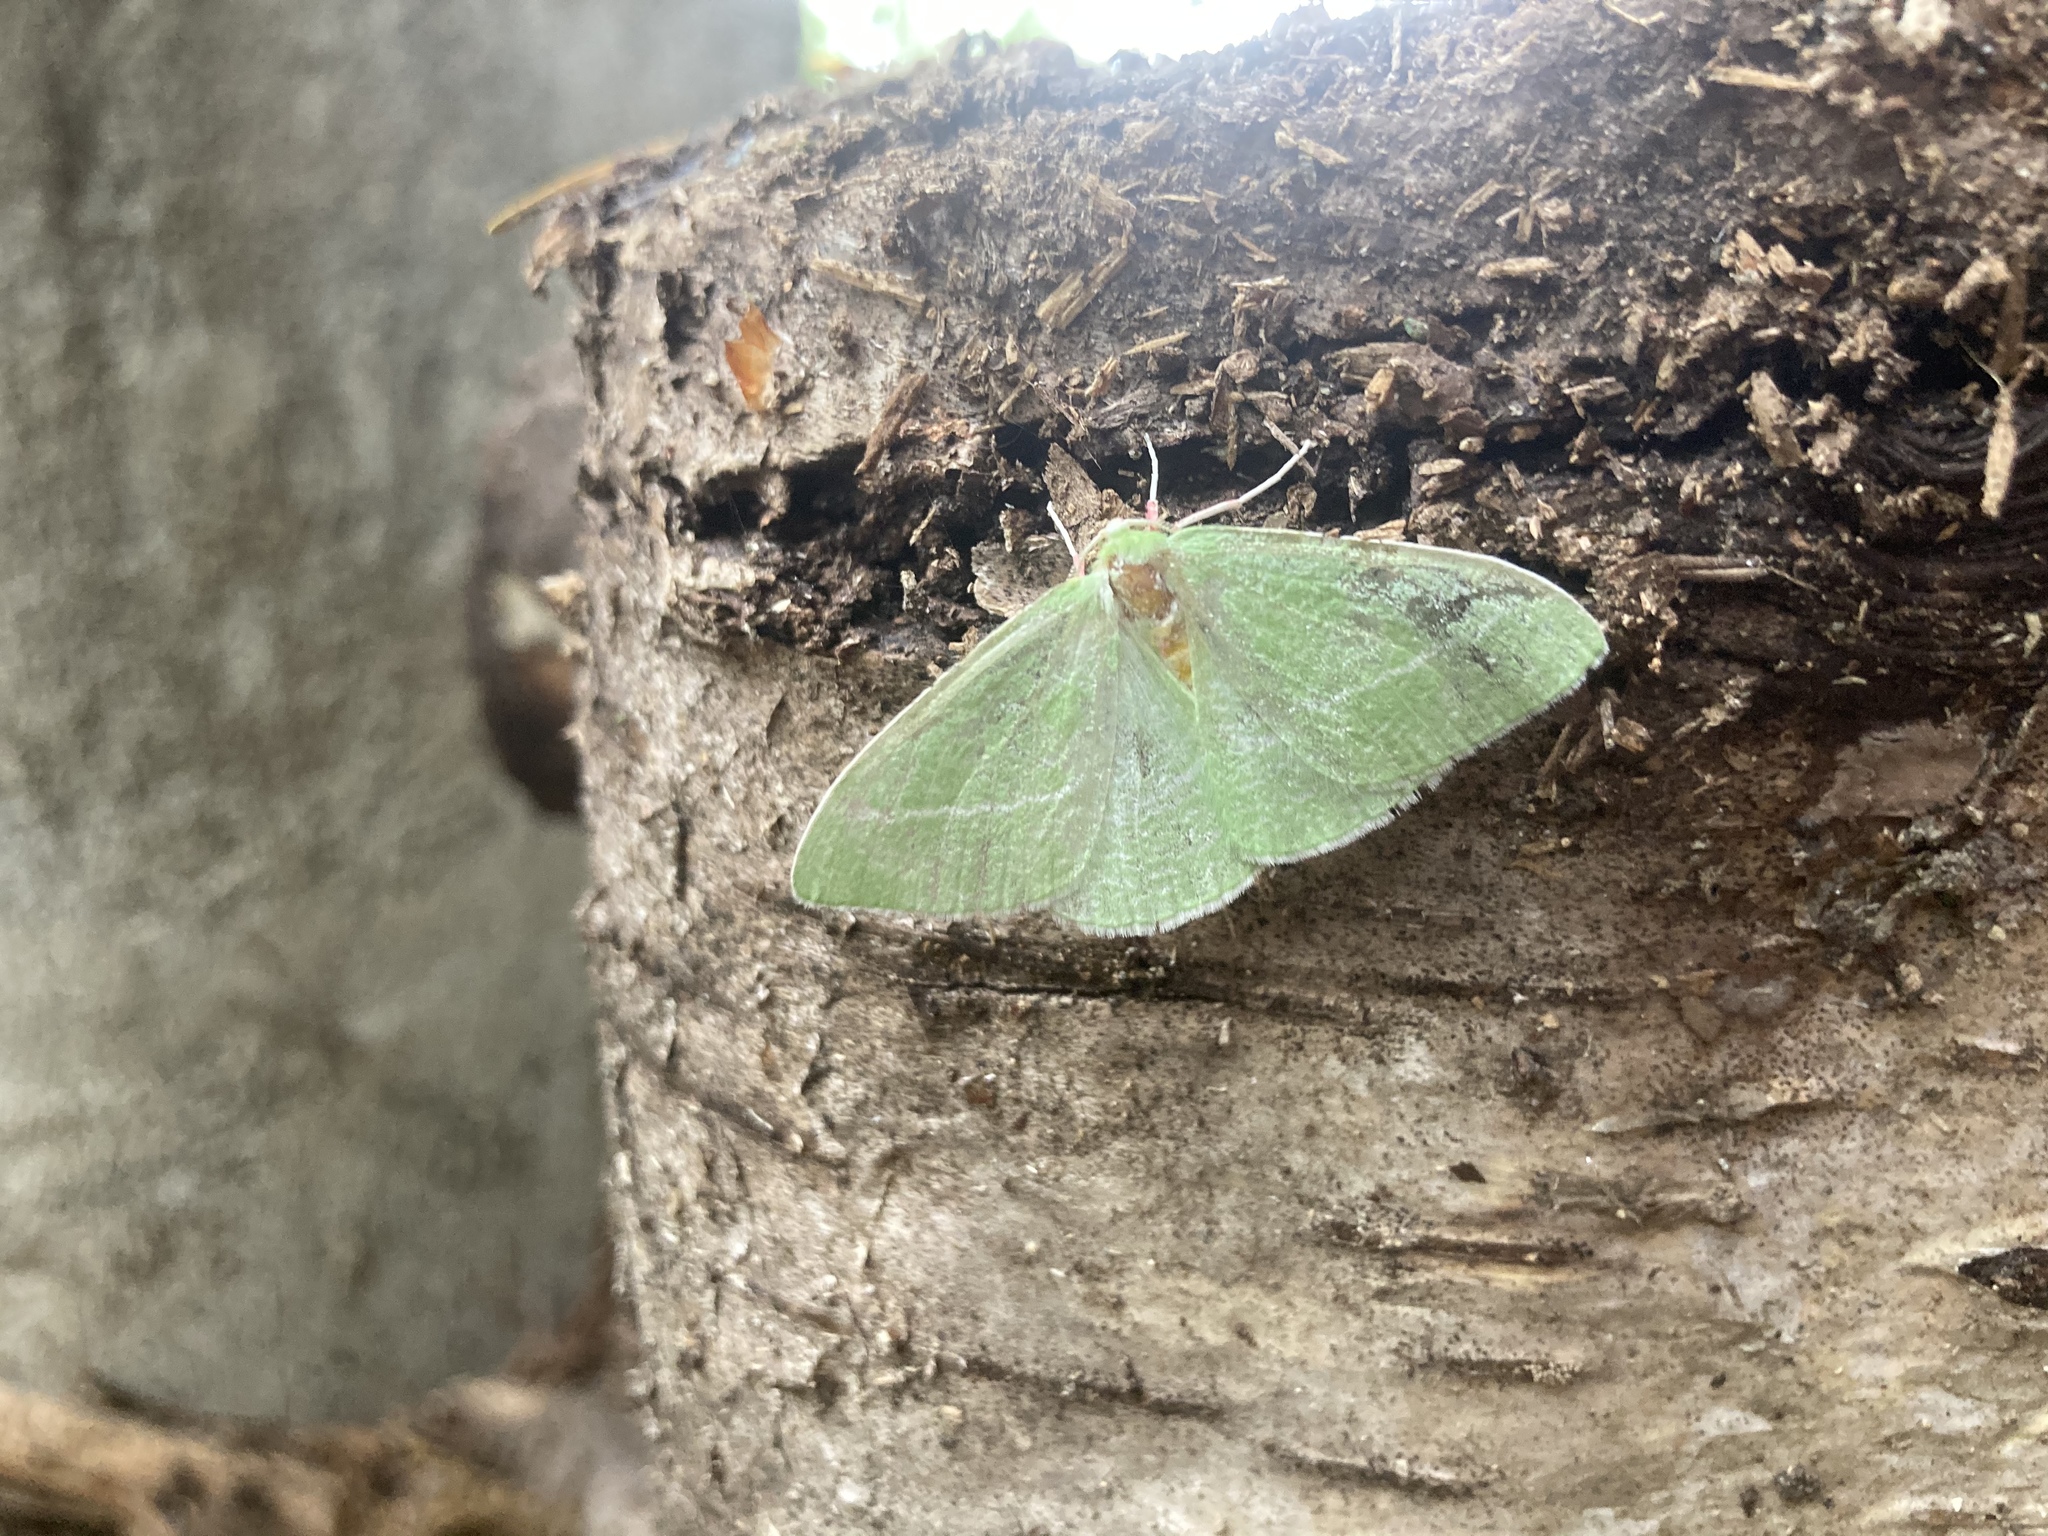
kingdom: Animalia
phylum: Arthropoda
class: Insecta
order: Lepidoptera
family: Geometridae
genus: Chlorosea
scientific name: Chlorosea banksaria
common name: Bank's emerald moth
